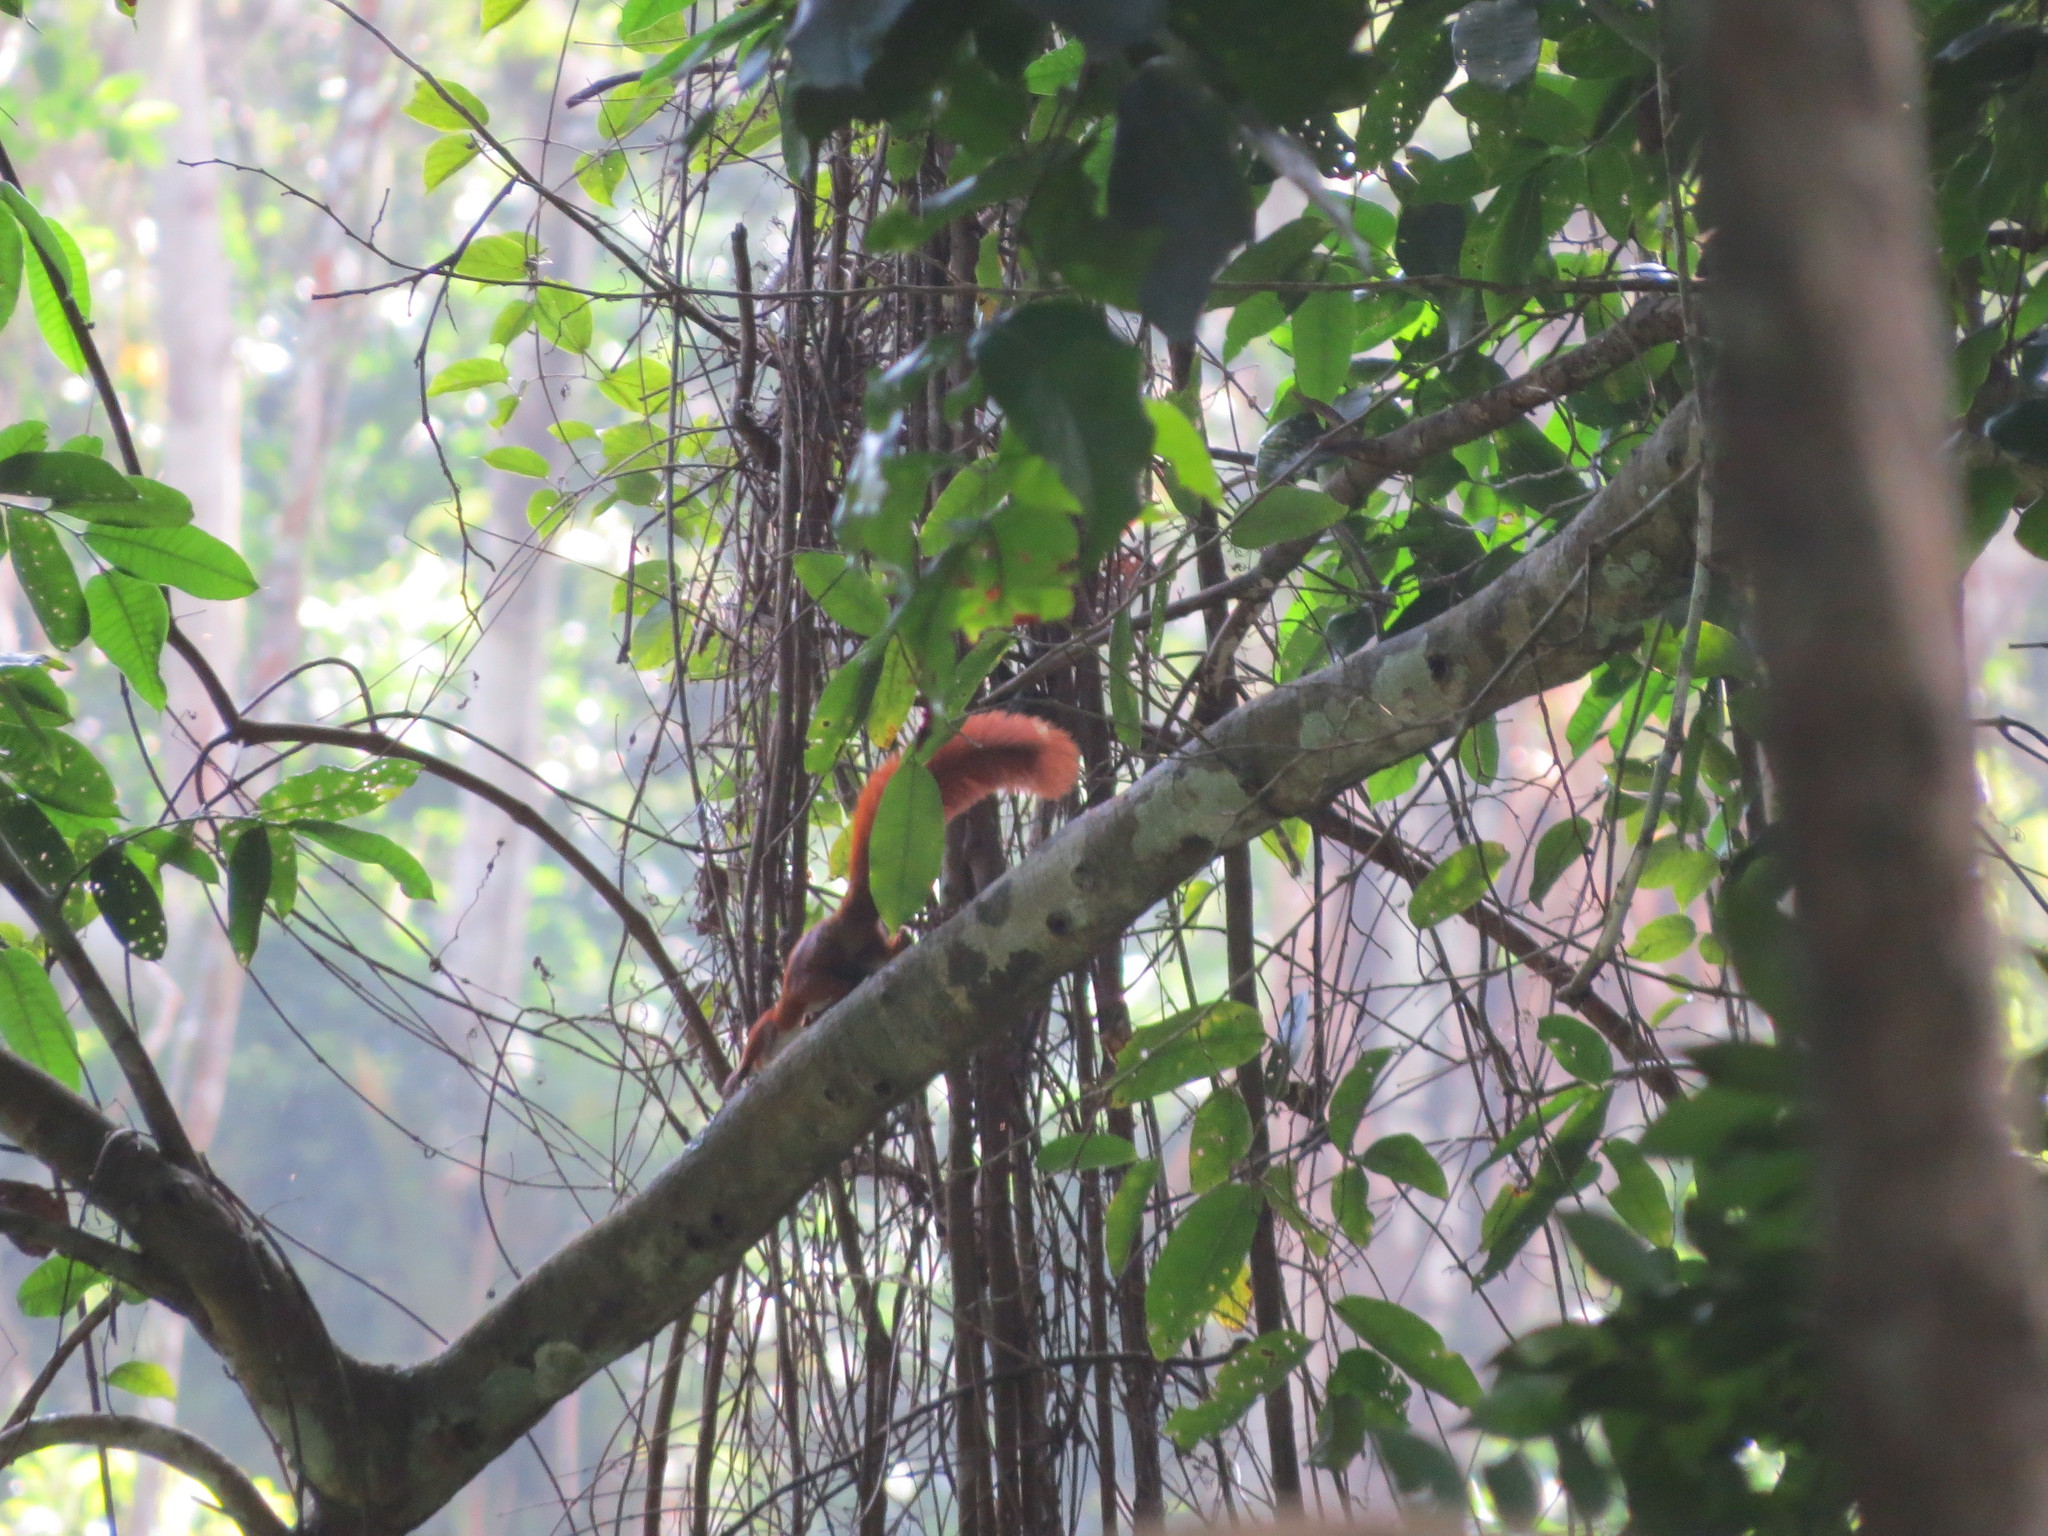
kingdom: Animalia
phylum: Chordata
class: Mammalia
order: Rodentia
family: Sciuridae
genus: Sciurus
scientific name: Sciurus granatensis
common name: Red-tailed squirrel
